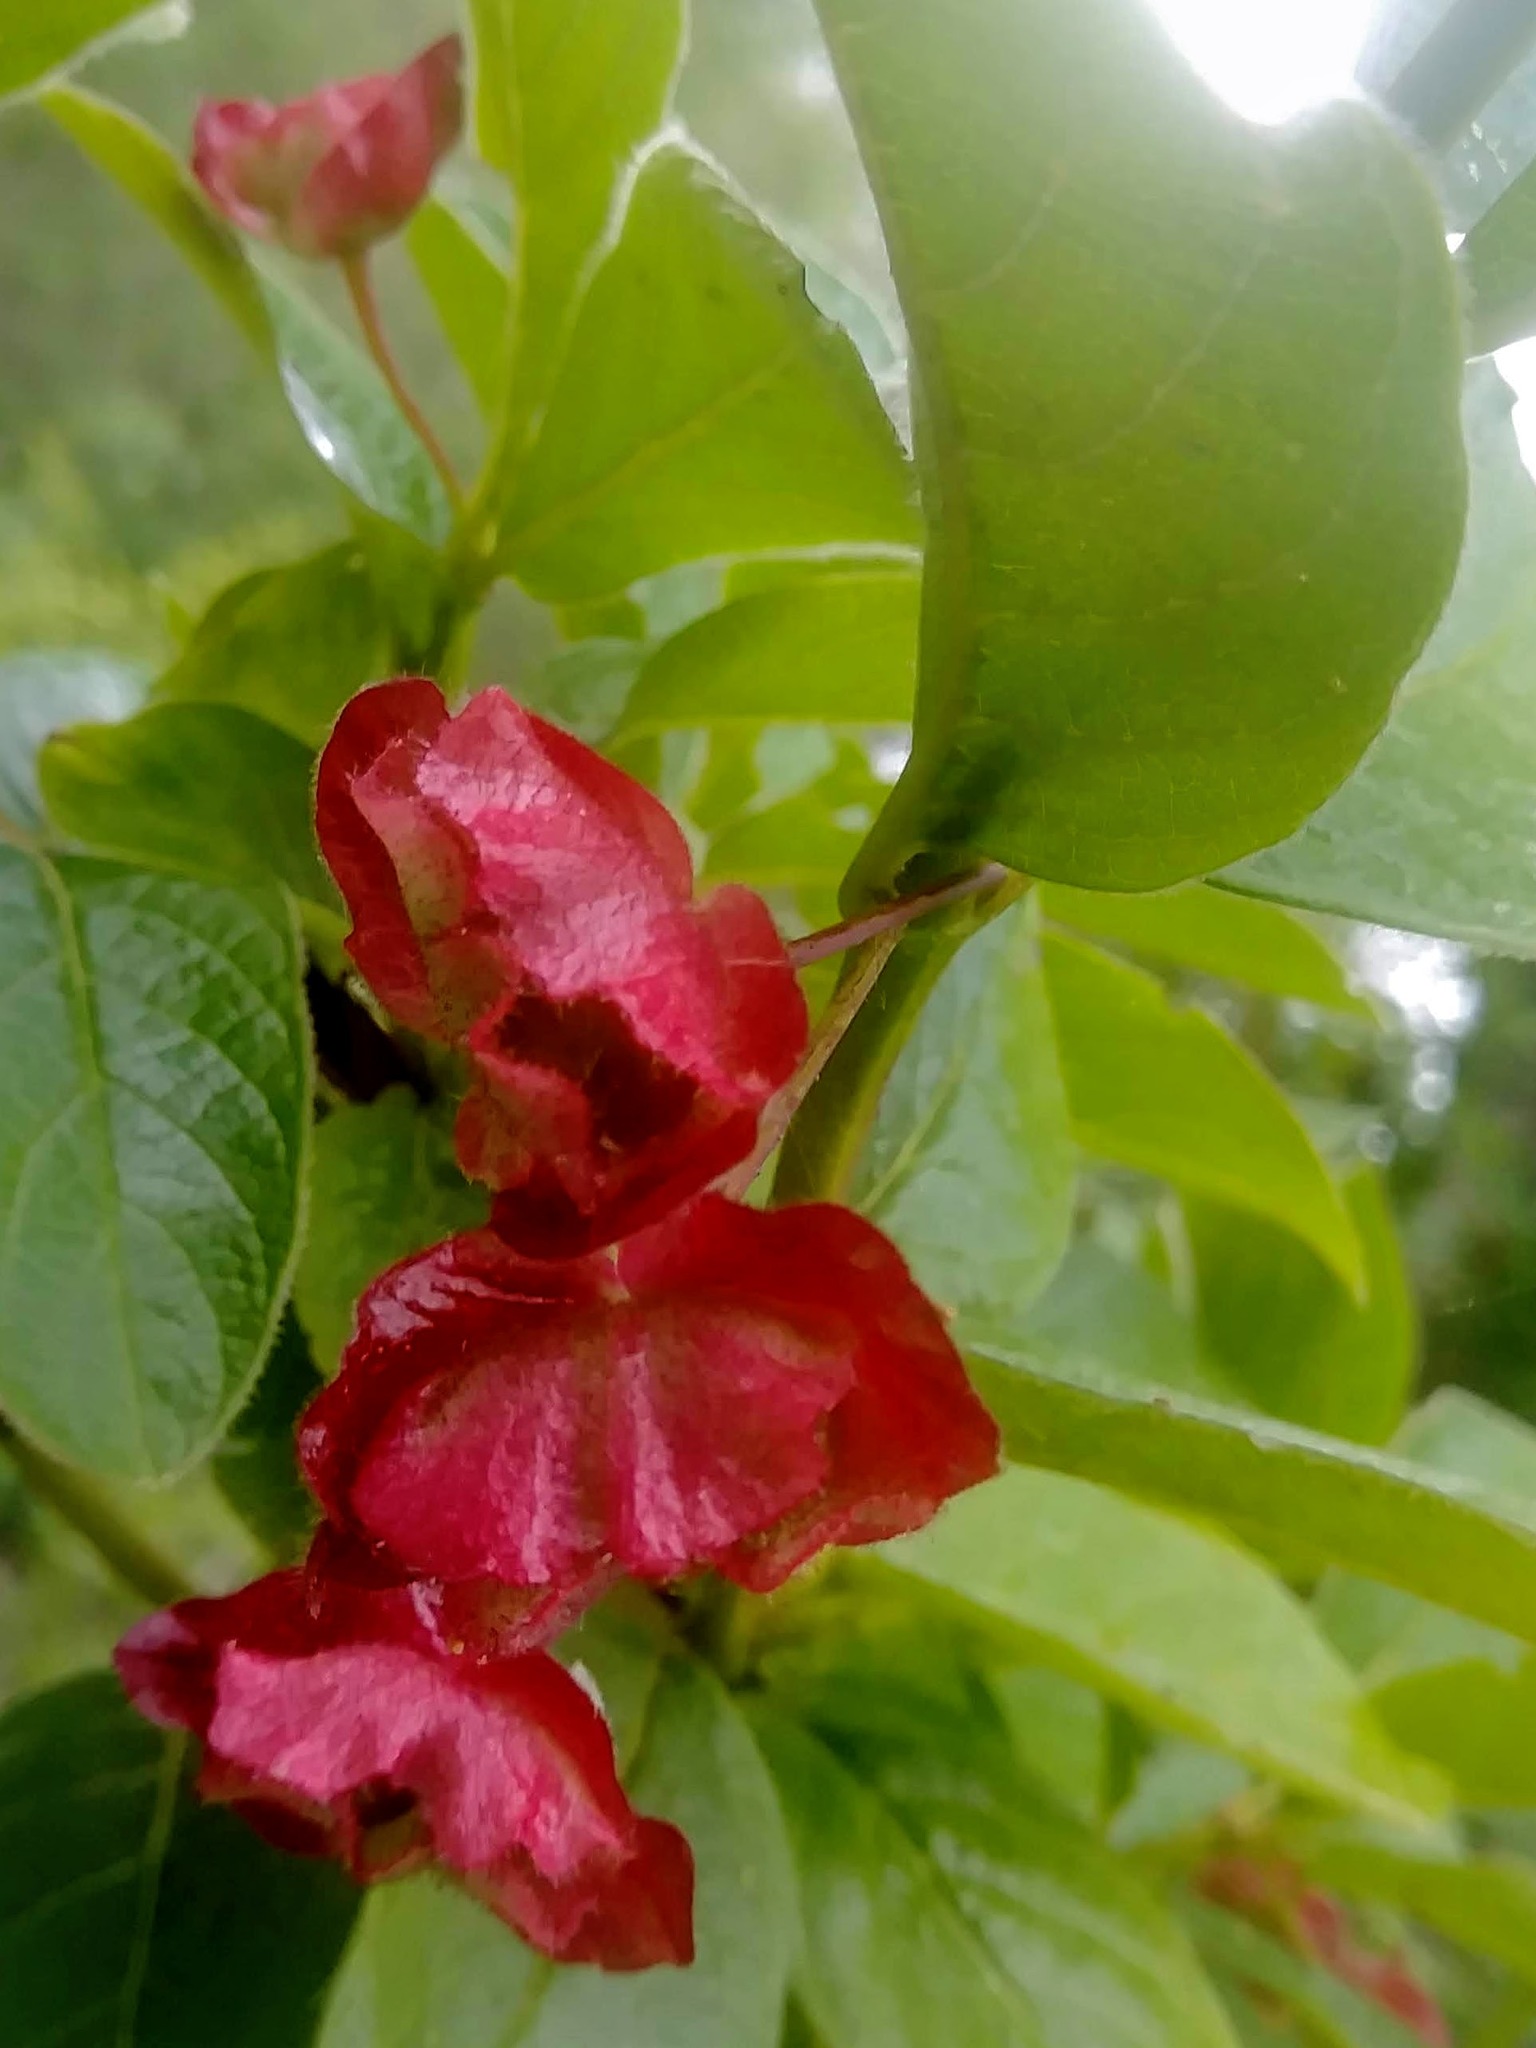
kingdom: Plantae
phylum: Tracheophyta
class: Magnoliopsida
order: Dipsacales
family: Caprifoliaceae
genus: Lonicera
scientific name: Lonicera involucrata
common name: Californian honeysuckle
